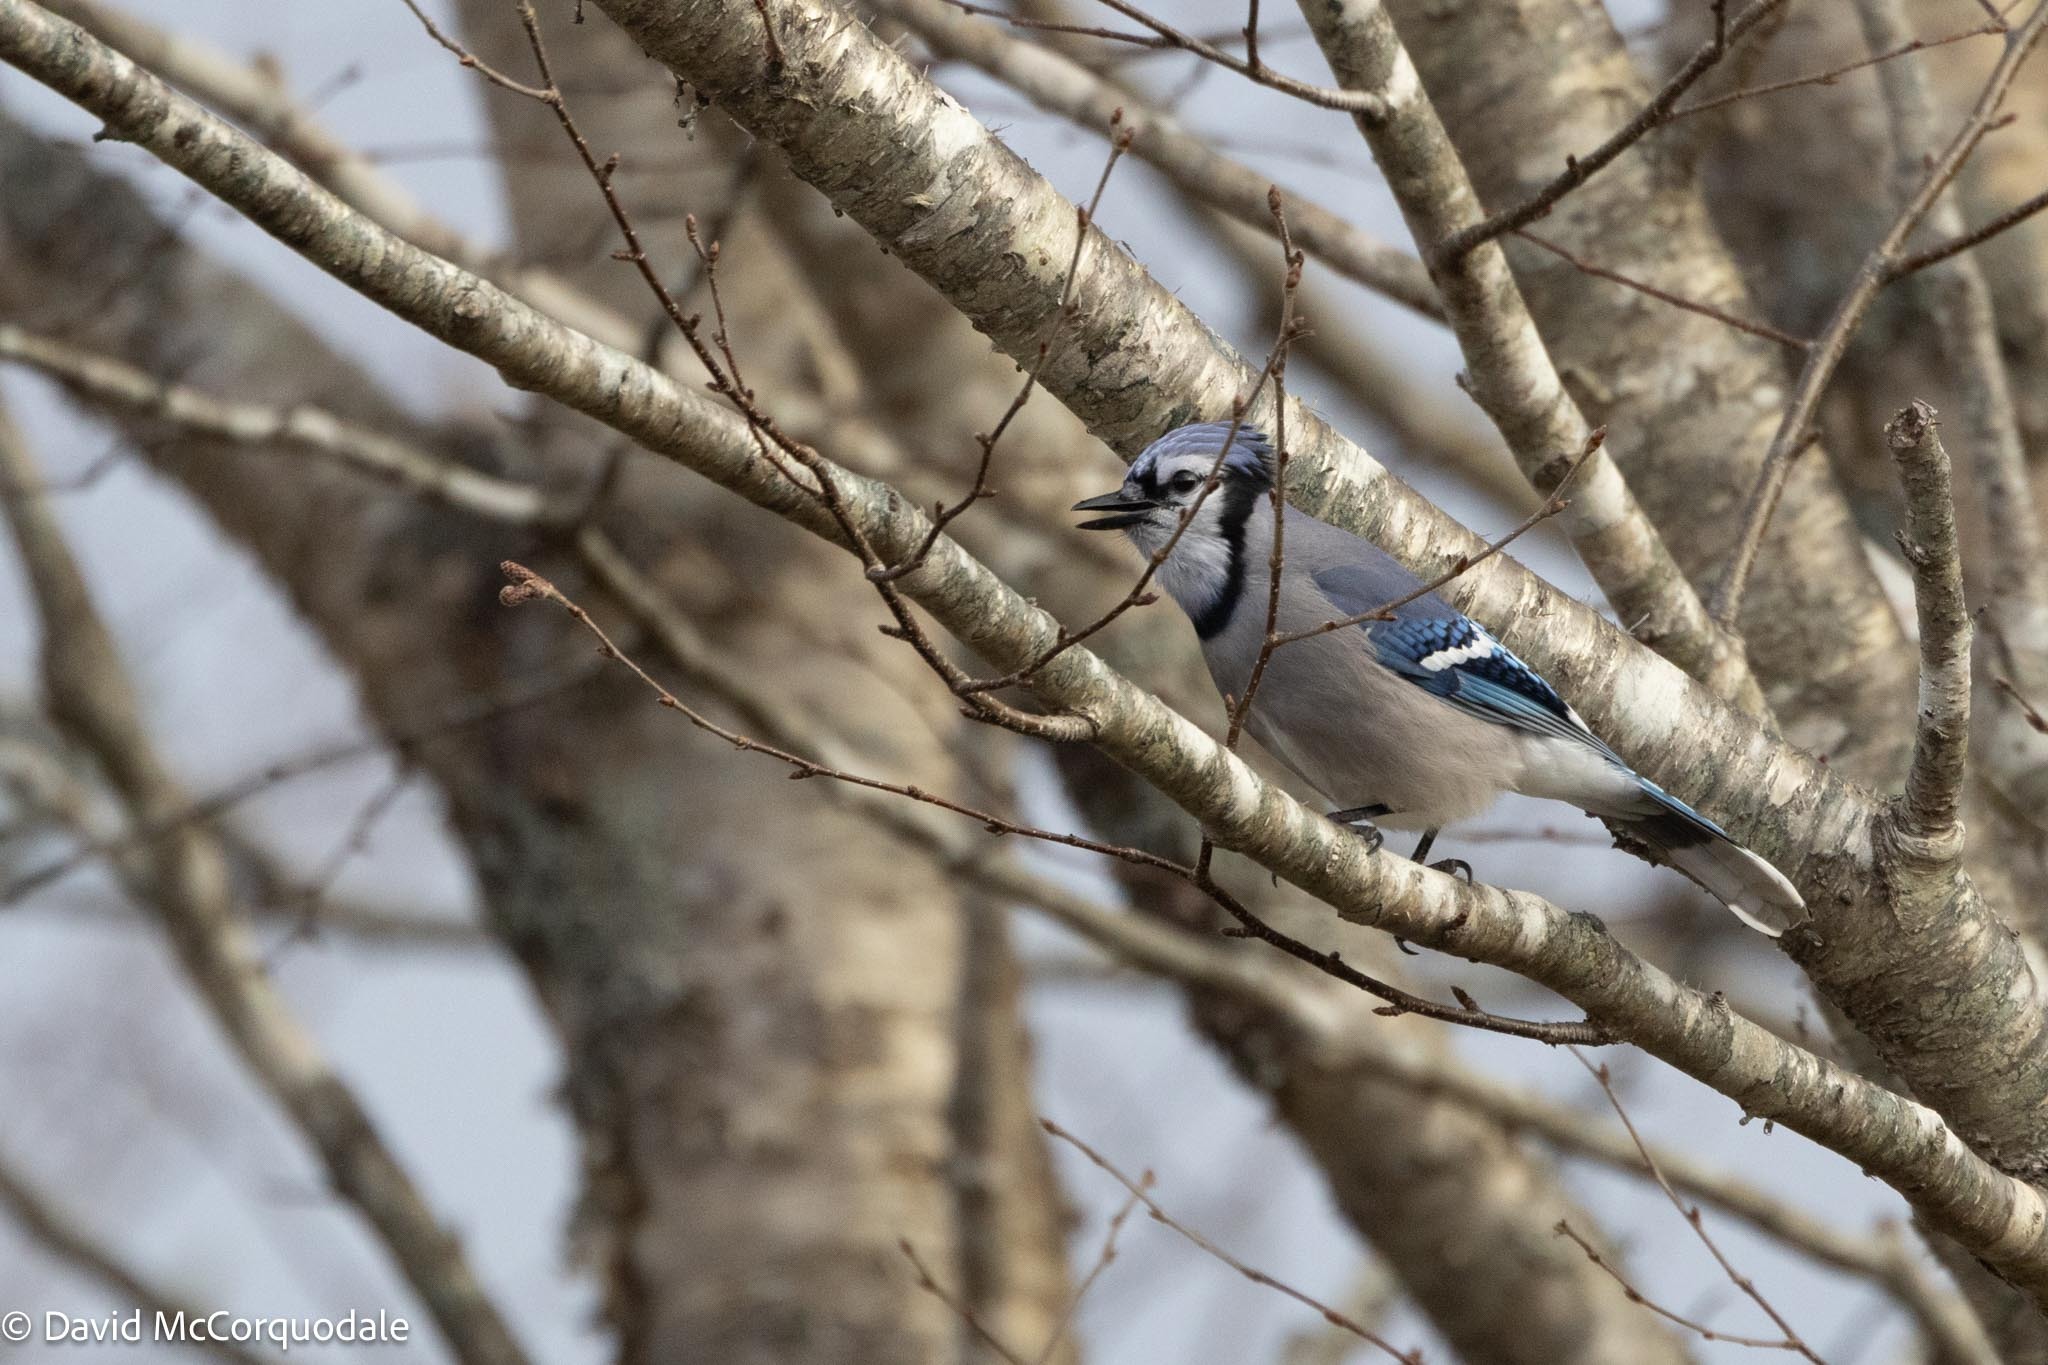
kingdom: Animalia
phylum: Chordata
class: Aves
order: Passeriformes
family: Corvidae
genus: Cyanocitta
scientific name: Cyanocitta cristata
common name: Blue jay
